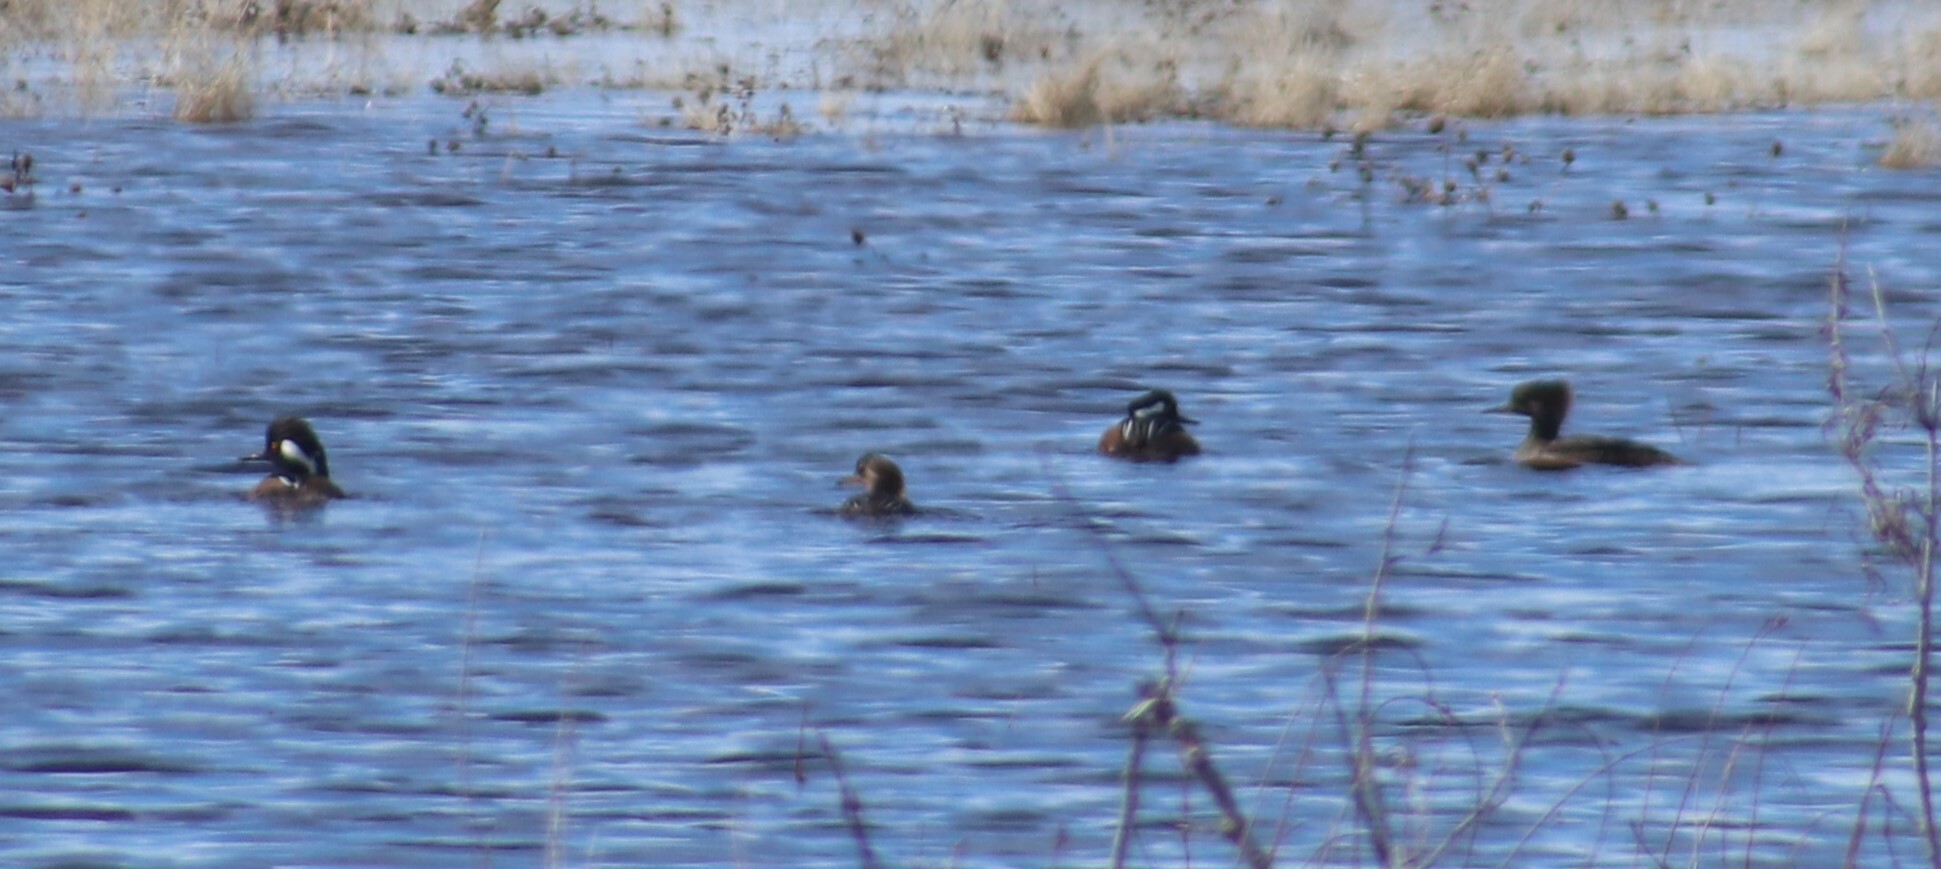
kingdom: Animalia
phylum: Chordata
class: Aves
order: Anseriformes
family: Anatidae
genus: Lophodytes
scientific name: Lophodytes cucullatus
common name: Hooded merganser
